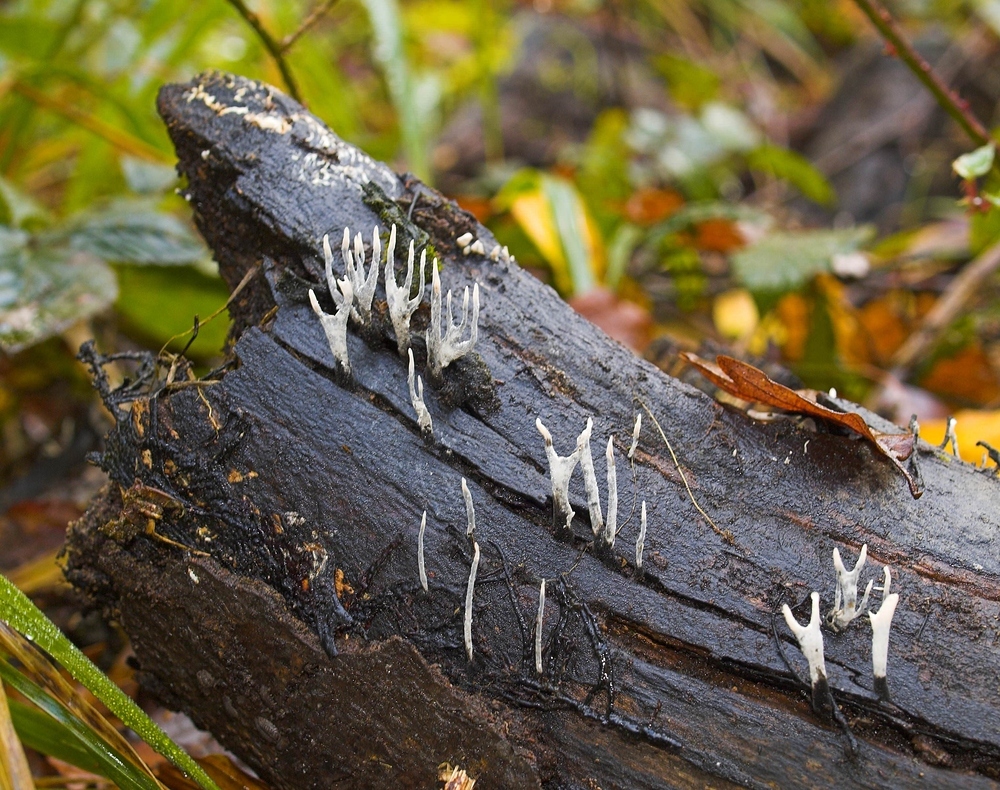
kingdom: Fungi
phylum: Ascomycota
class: Sordariomycetes
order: Xylariales
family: Xylariaceae
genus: Xylaria
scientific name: Xylaria hypoxylon
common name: Candle-snuff fungus
